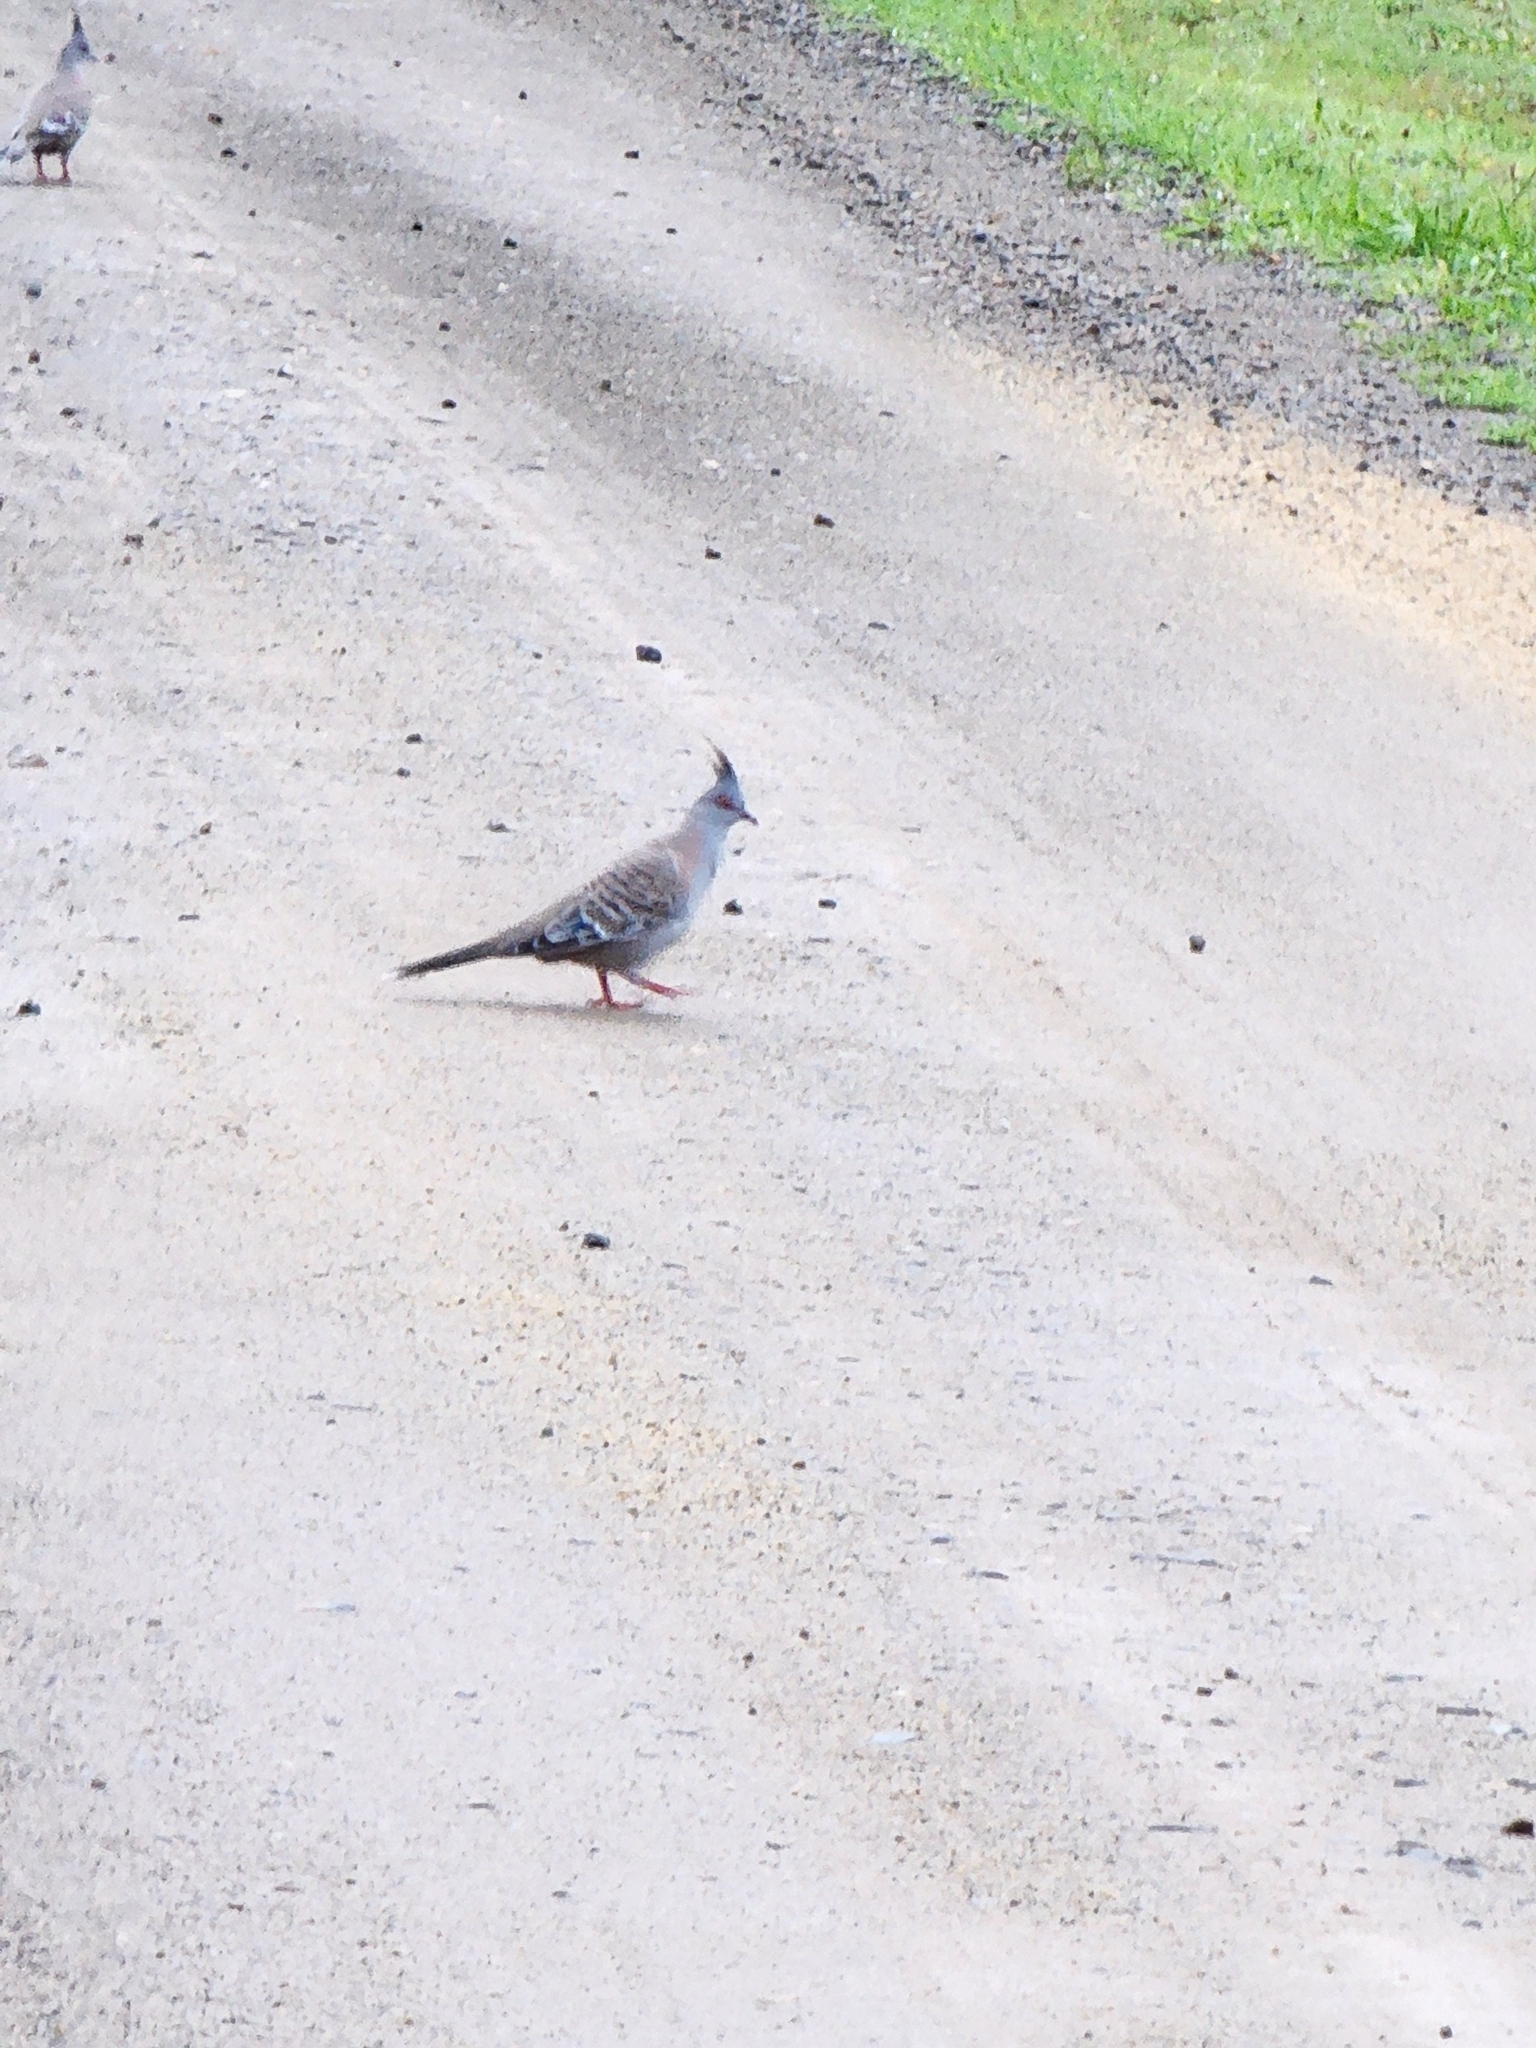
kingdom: Animalia
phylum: Chordata
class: Aves
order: Columbiformes
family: Columbidae
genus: Ocyphaps
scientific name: Ocyphaps lophotes
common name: Crested pigeon
